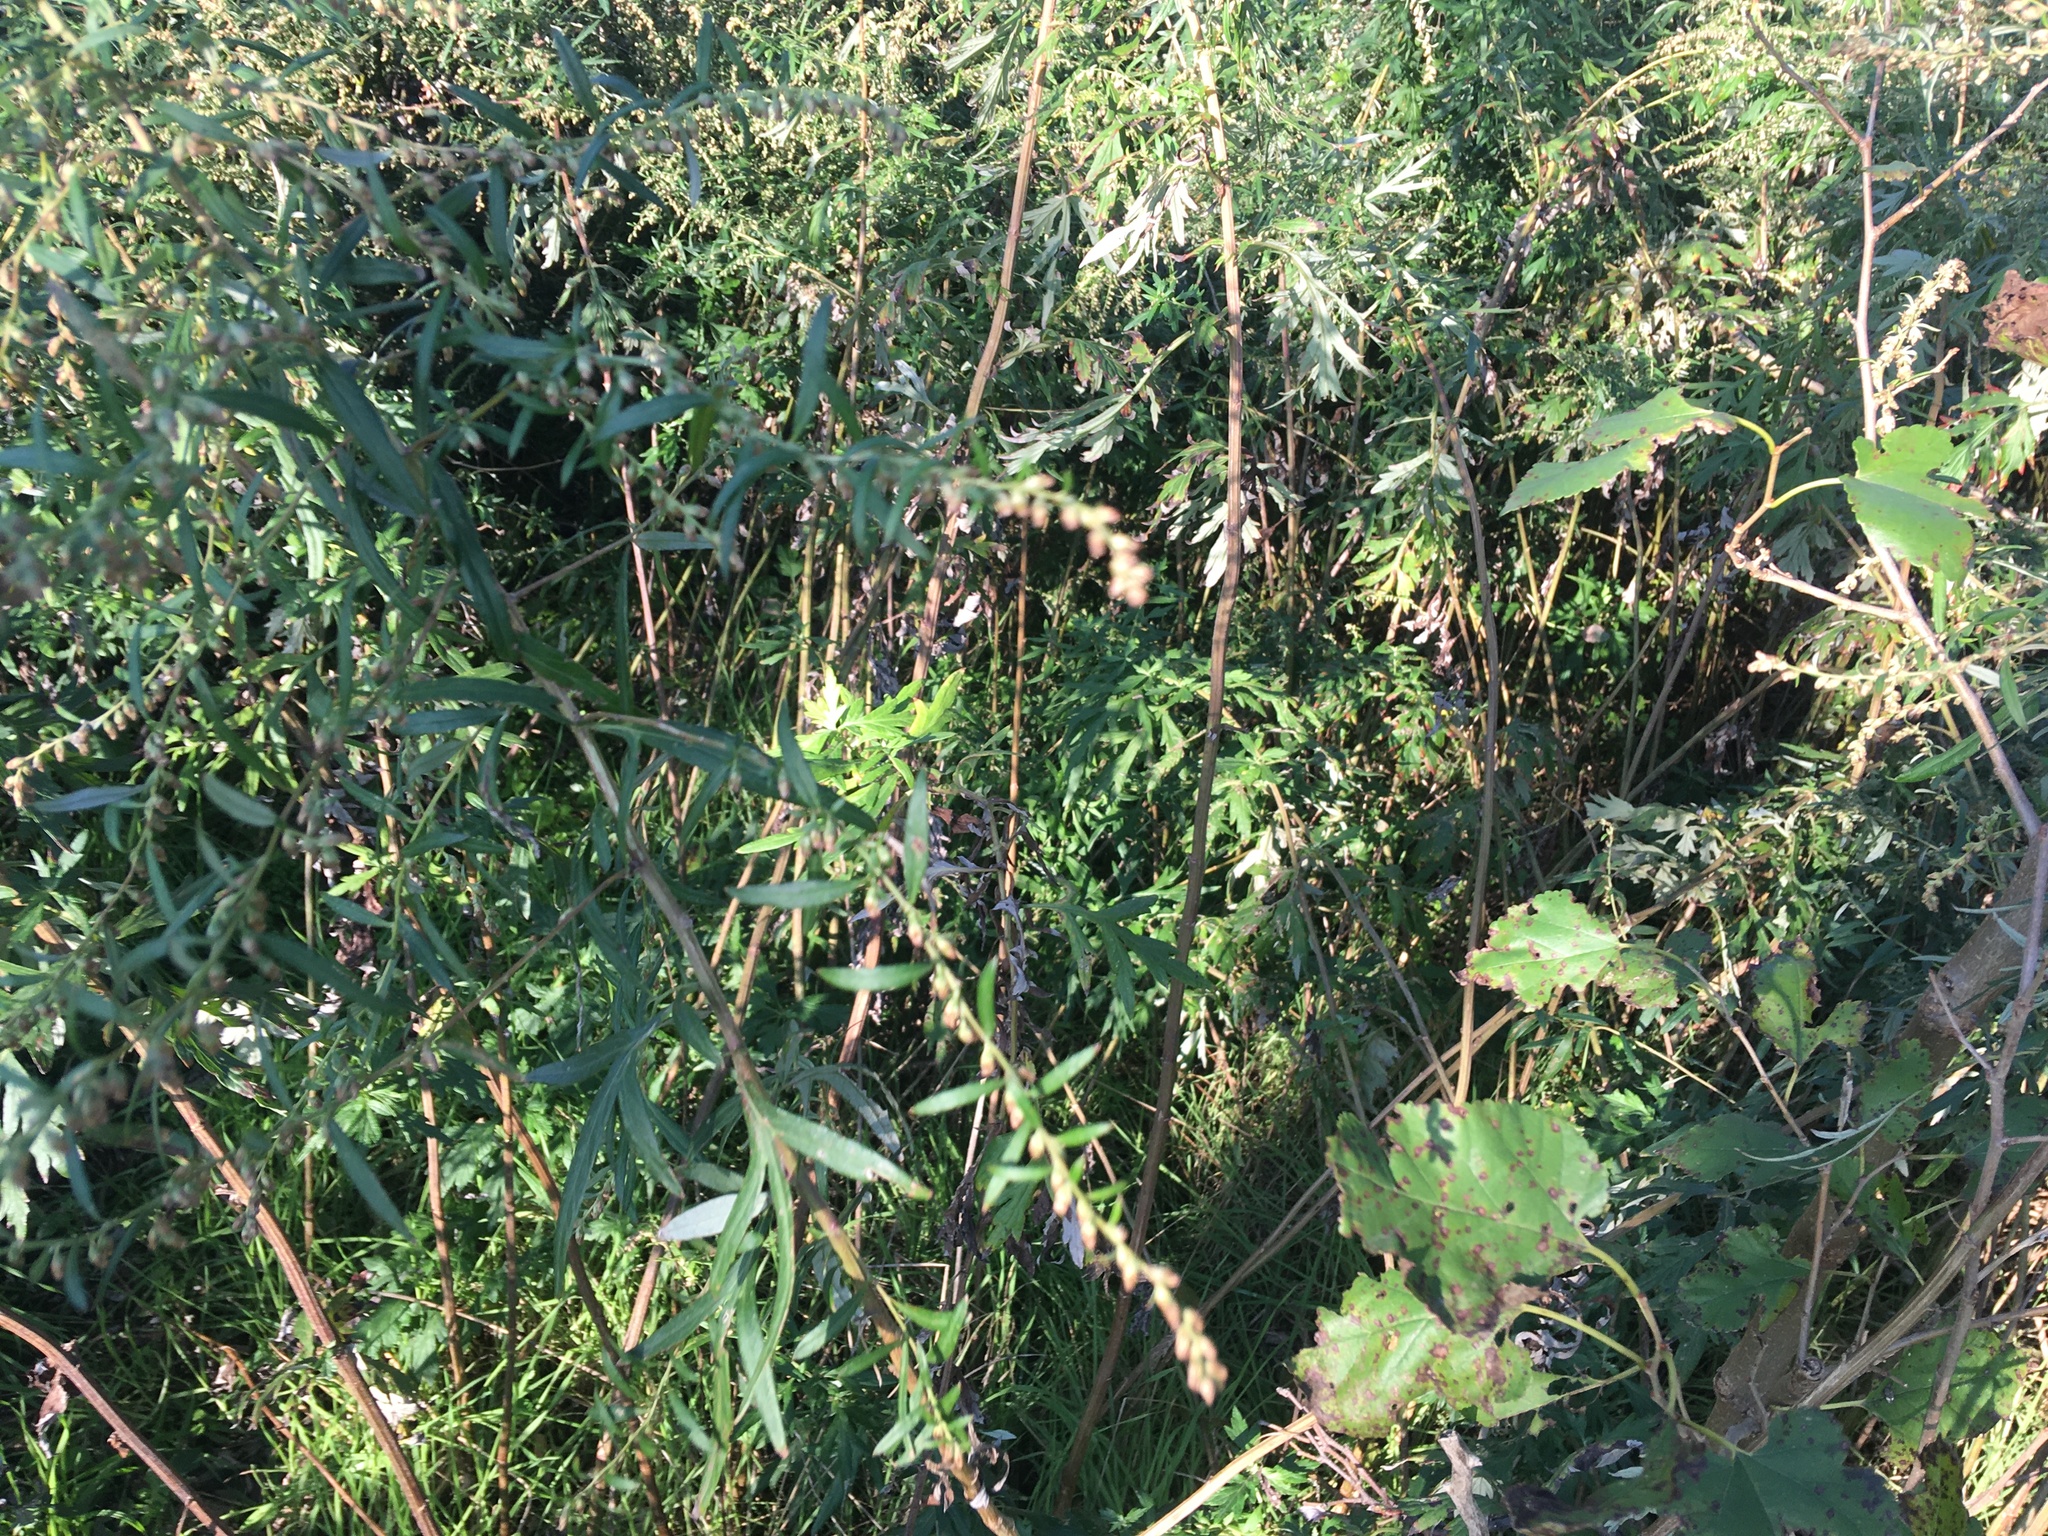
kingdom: Plantae
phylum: Tracheophyta
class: Magnoliopsida
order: Asterales
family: Asteraceae
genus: Artemisia
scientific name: Artemisia vulgaris
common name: Mugwort
